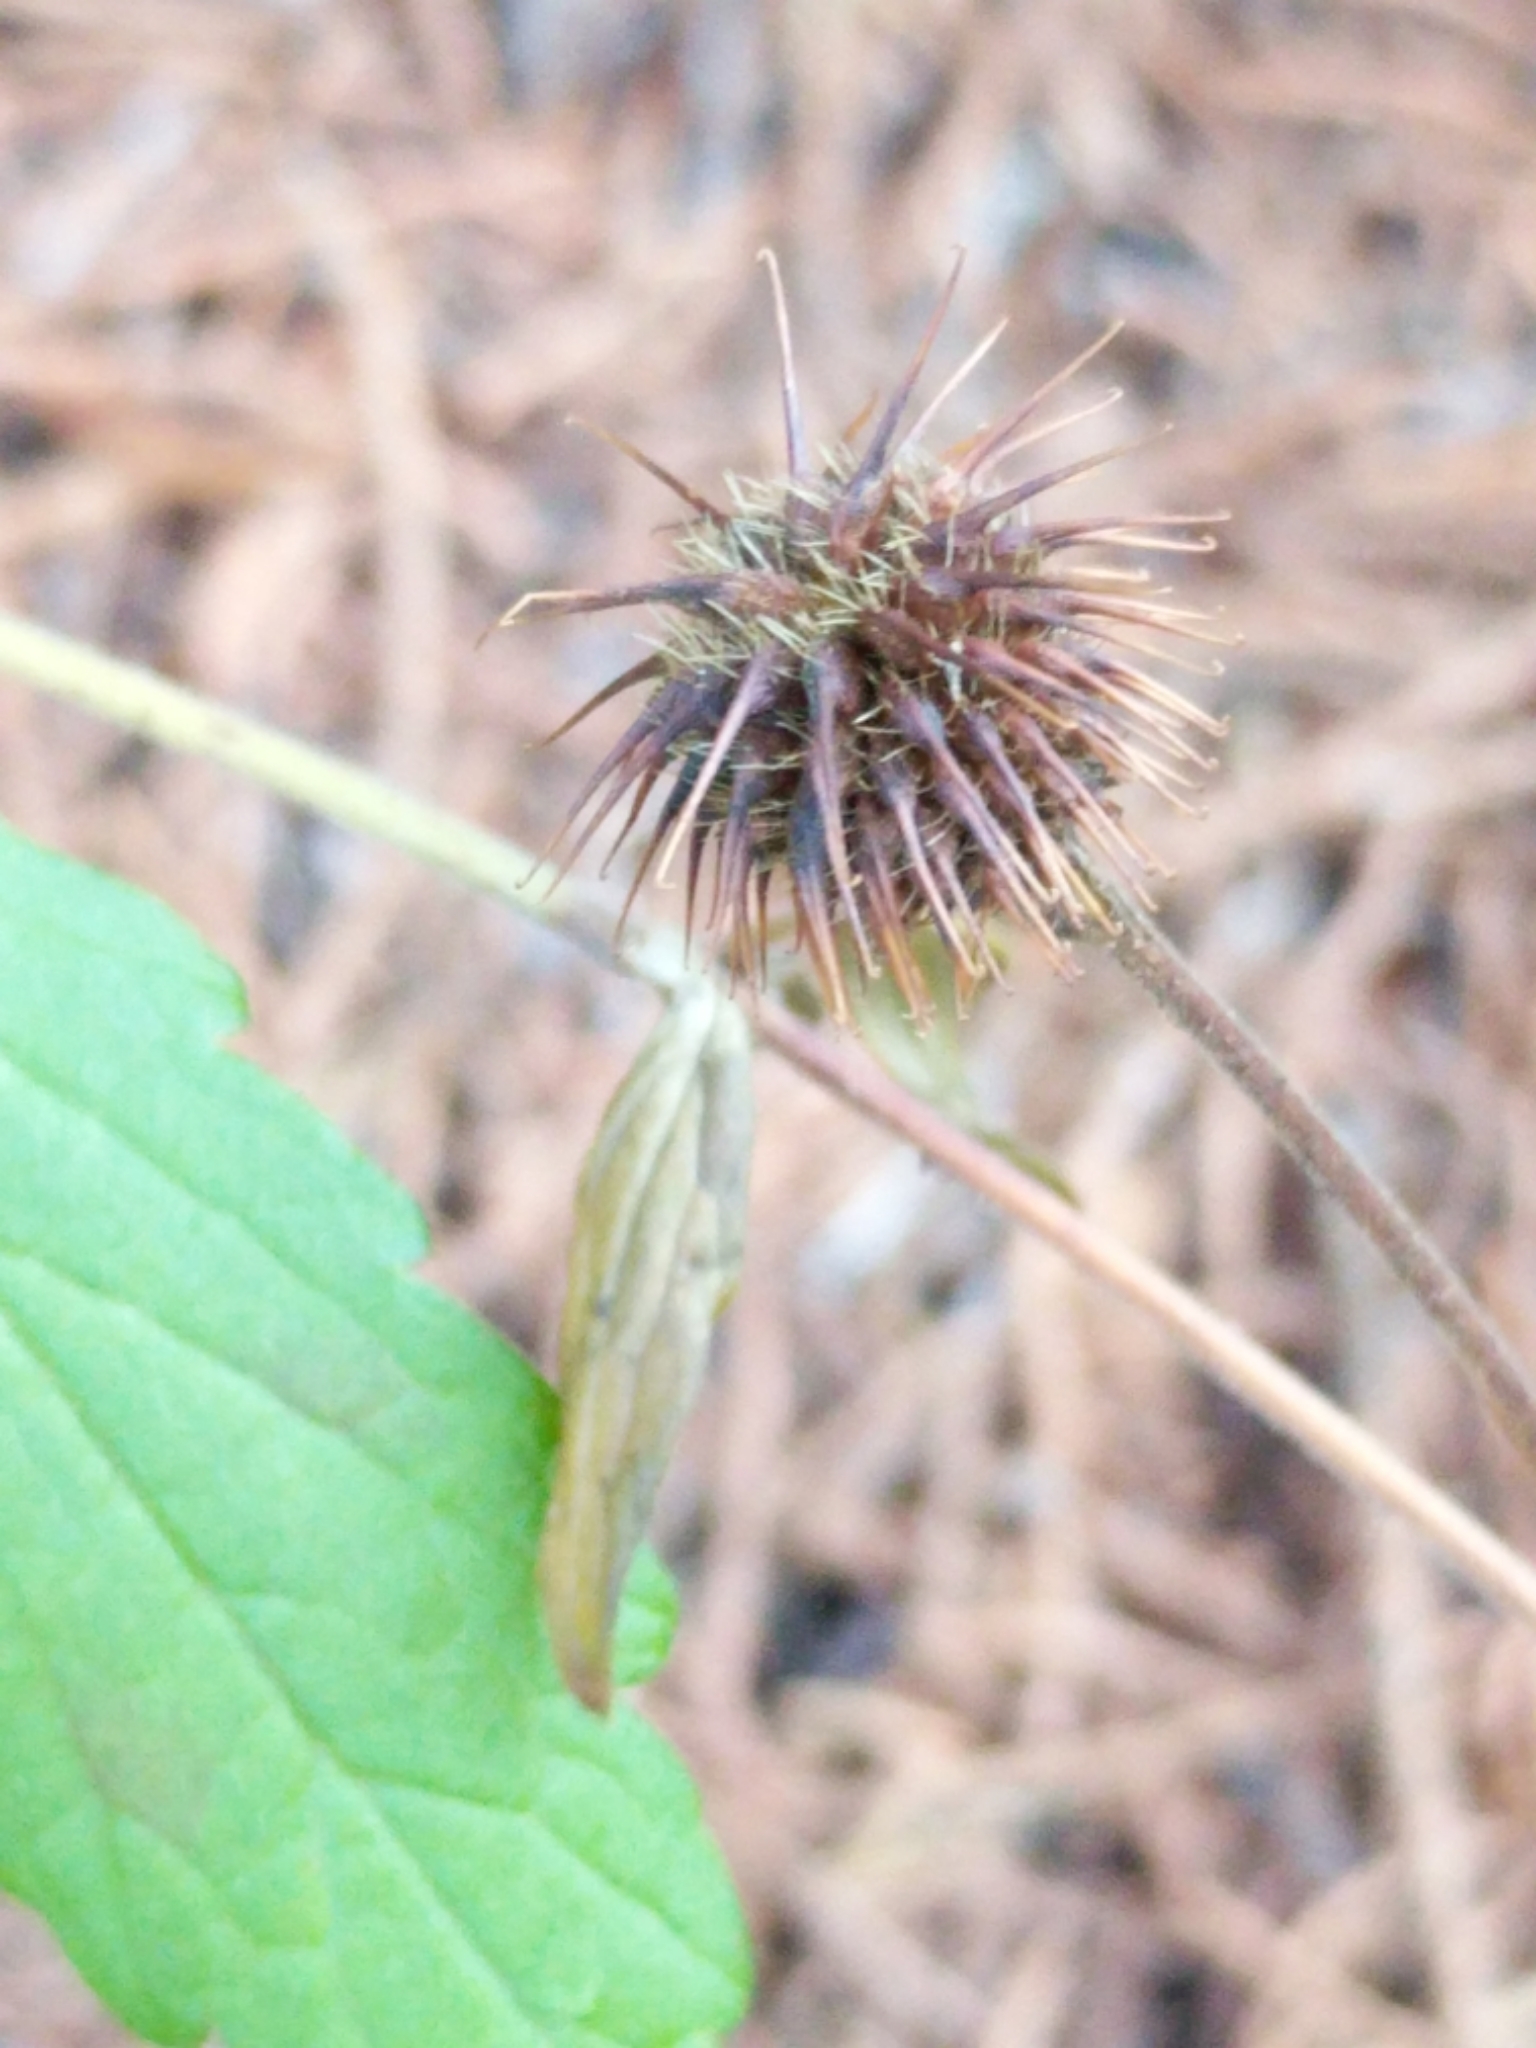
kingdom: Plantae
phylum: Tracheophyta
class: Magnoliopsida
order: Rosales
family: Rosaceae
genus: Geum
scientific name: Geum canadense
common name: White avens
